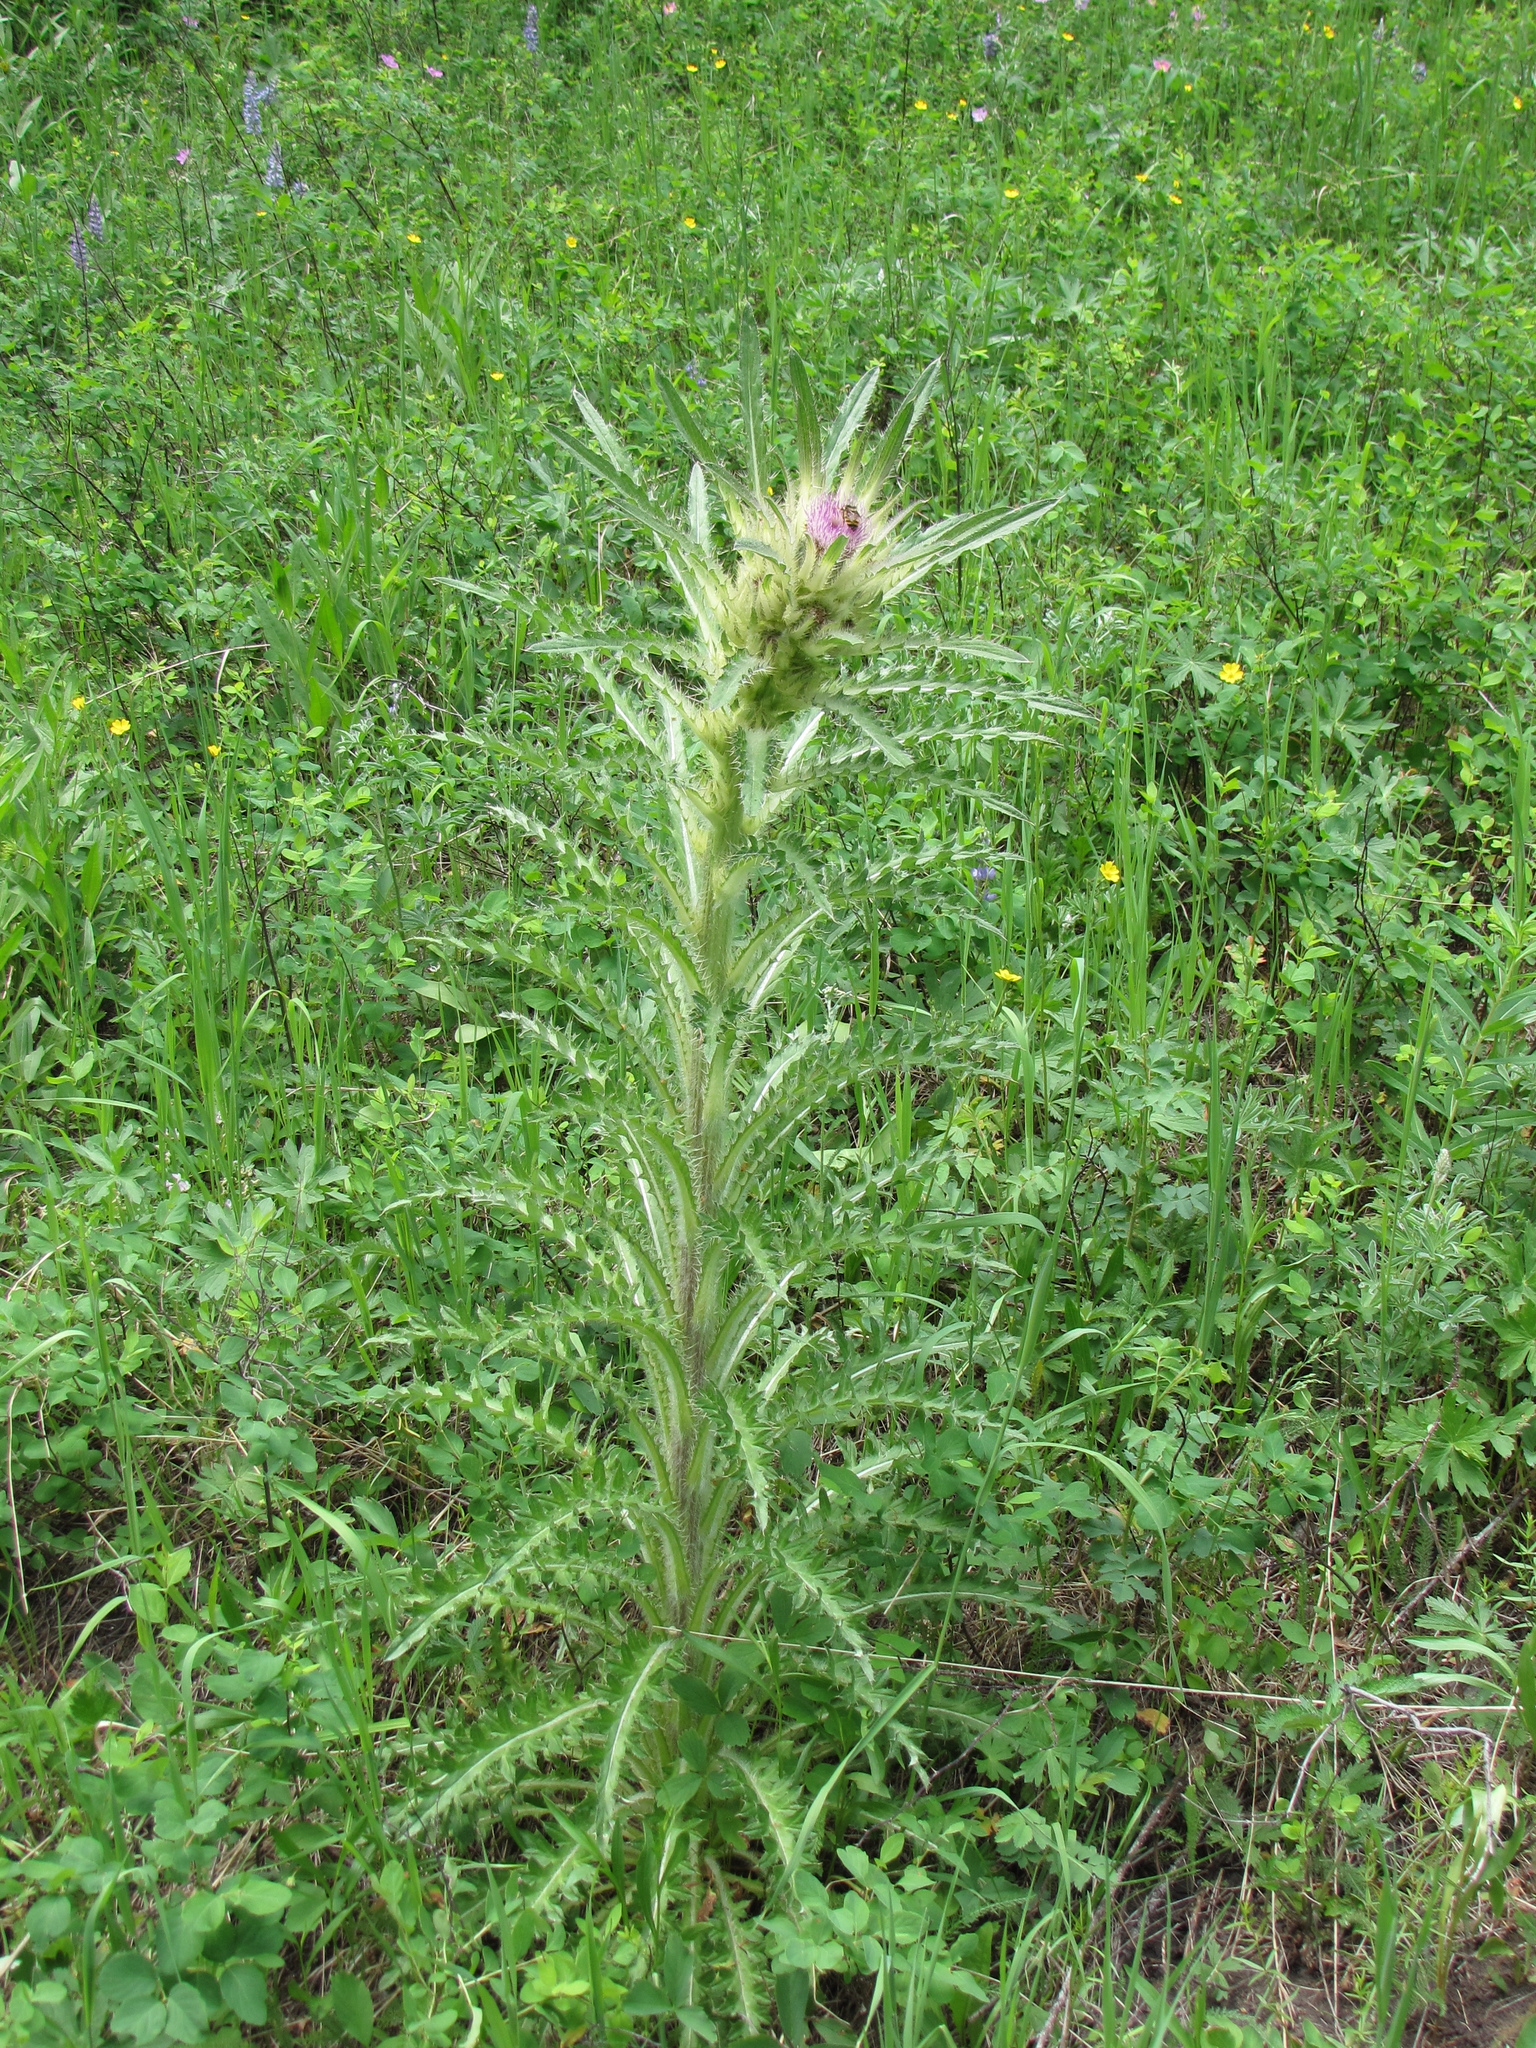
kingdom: Plantae
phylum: Tracheophyta
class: Magnoliopsida
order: Asterales
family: Asteraceae
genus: Cirsium
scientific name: Cirsium scariosum
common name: Meadow thistle
